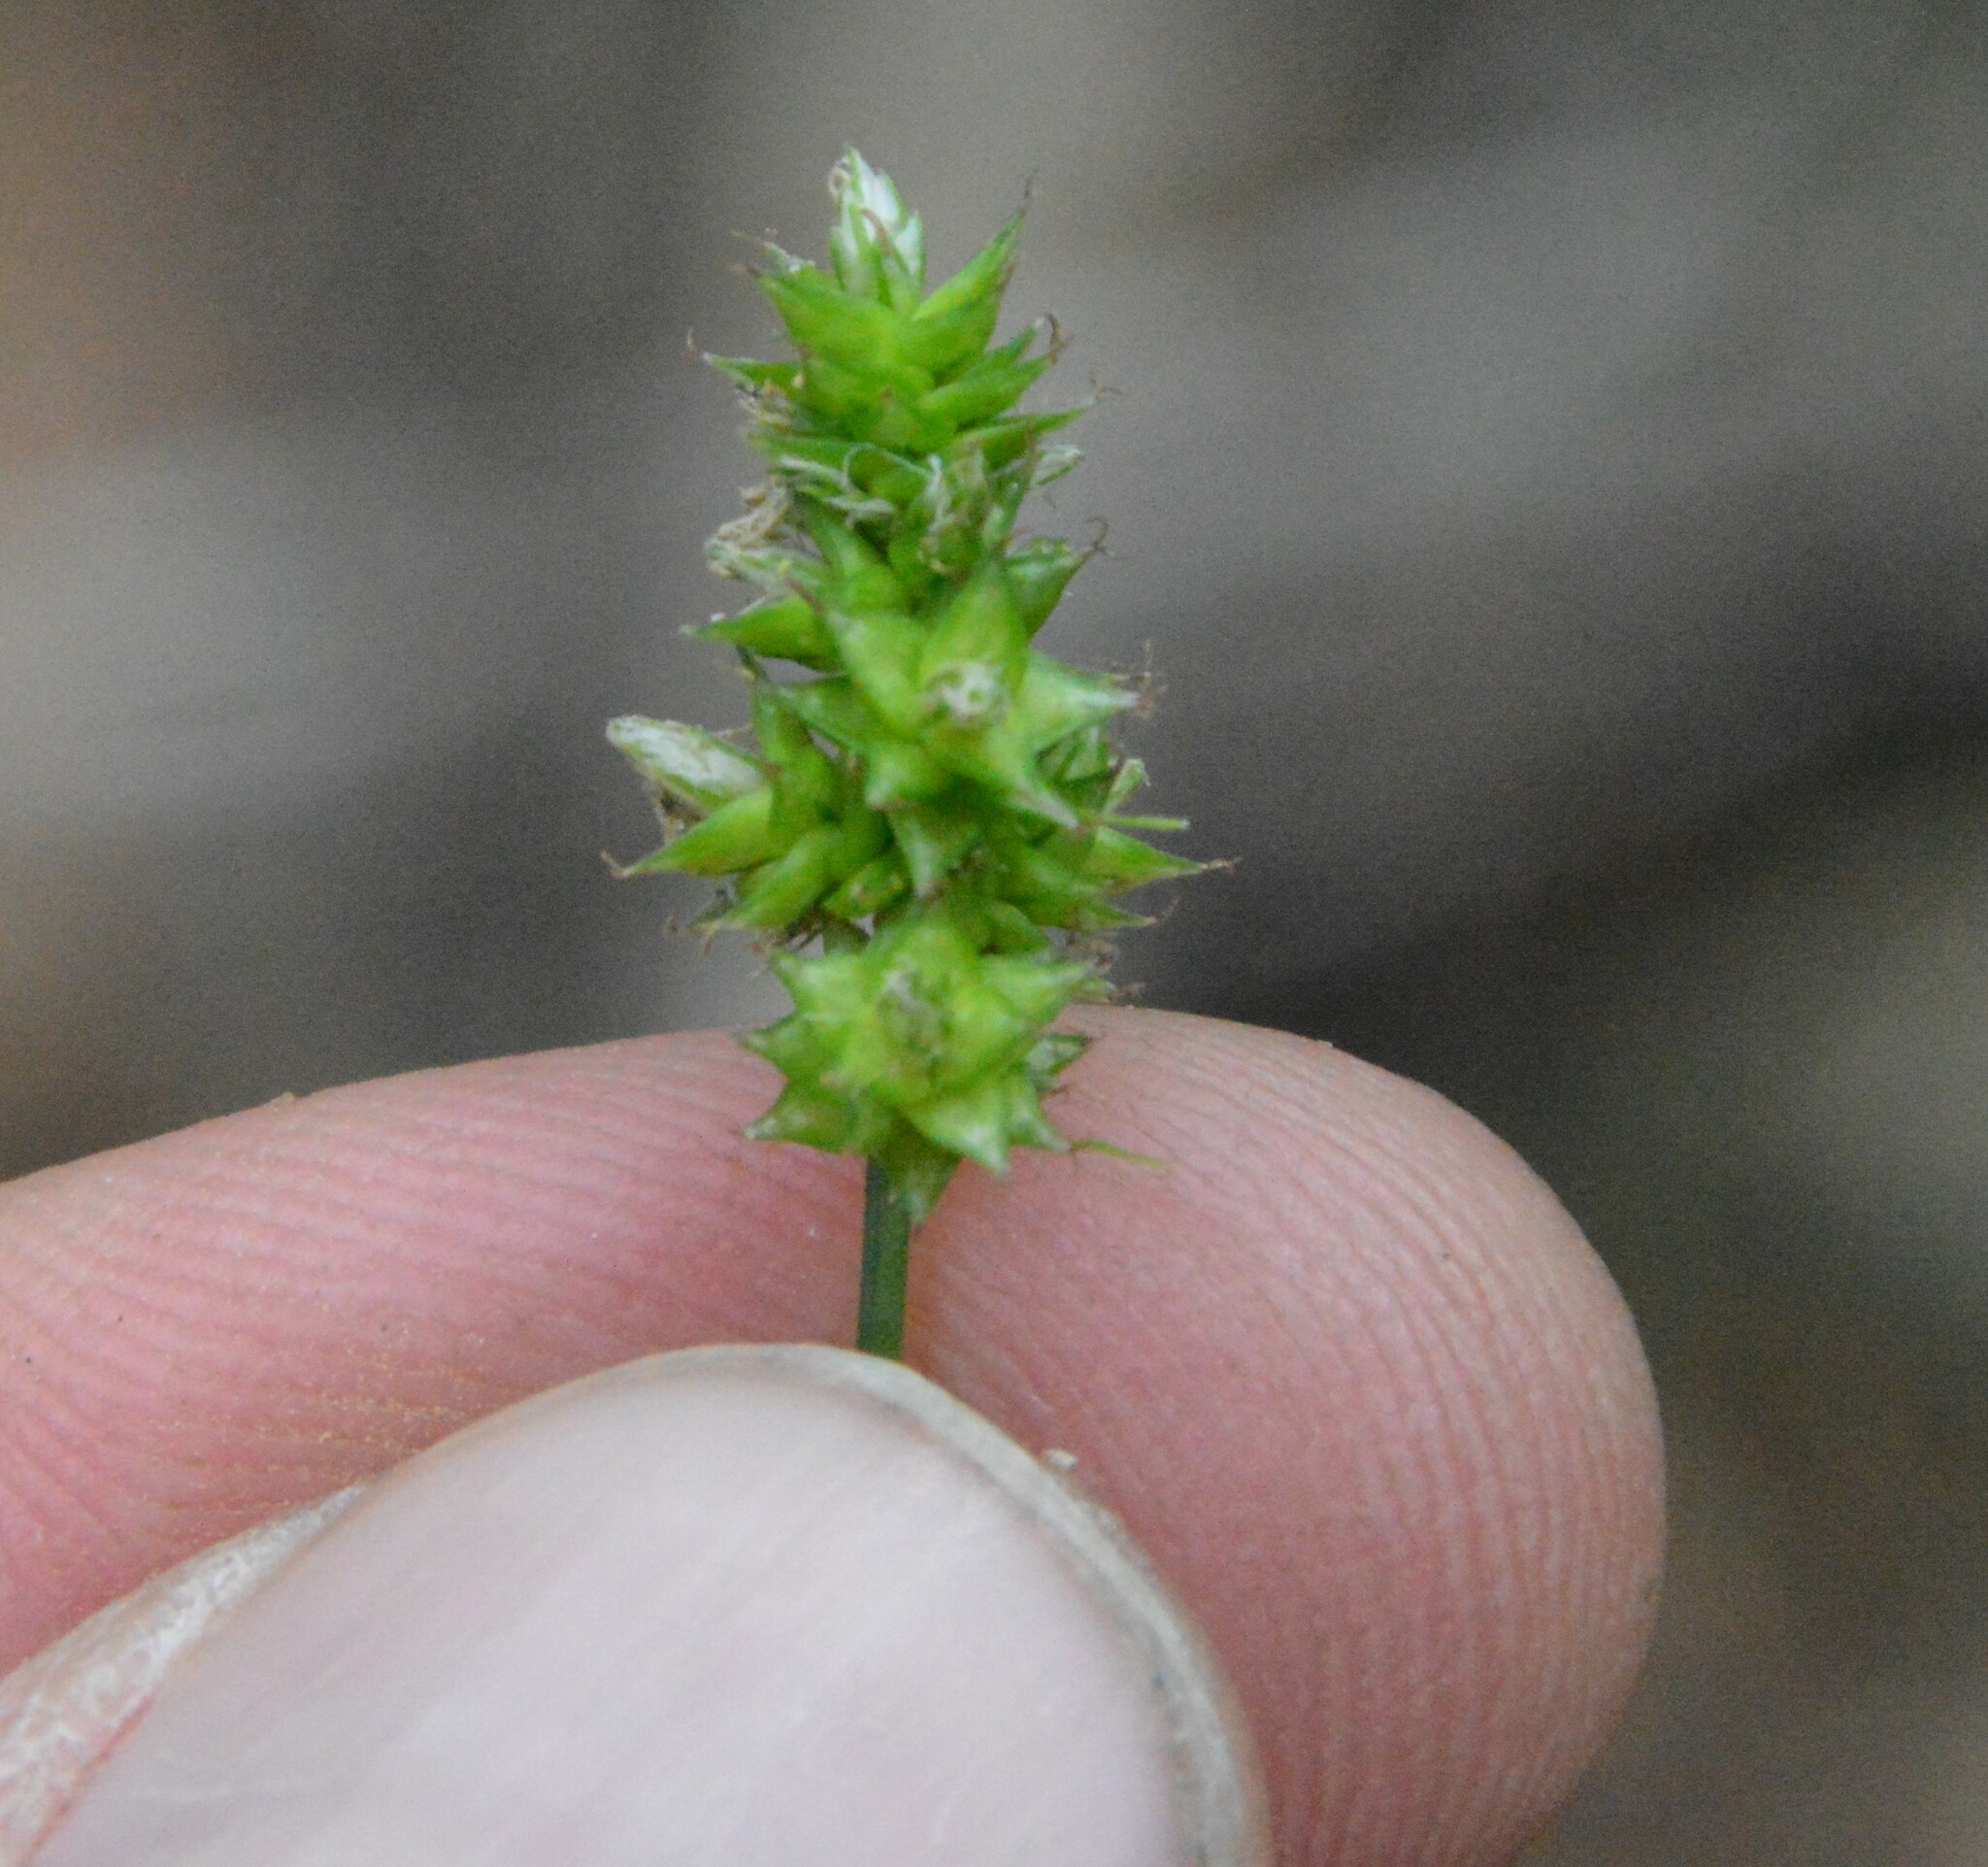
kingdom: Plantae
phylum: Tracheophyta
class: Liliopsida
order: Poales
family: Cyperaceae
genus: Carex
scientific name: Carex leavenworthii
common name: Leavenworth's bracted sedge
